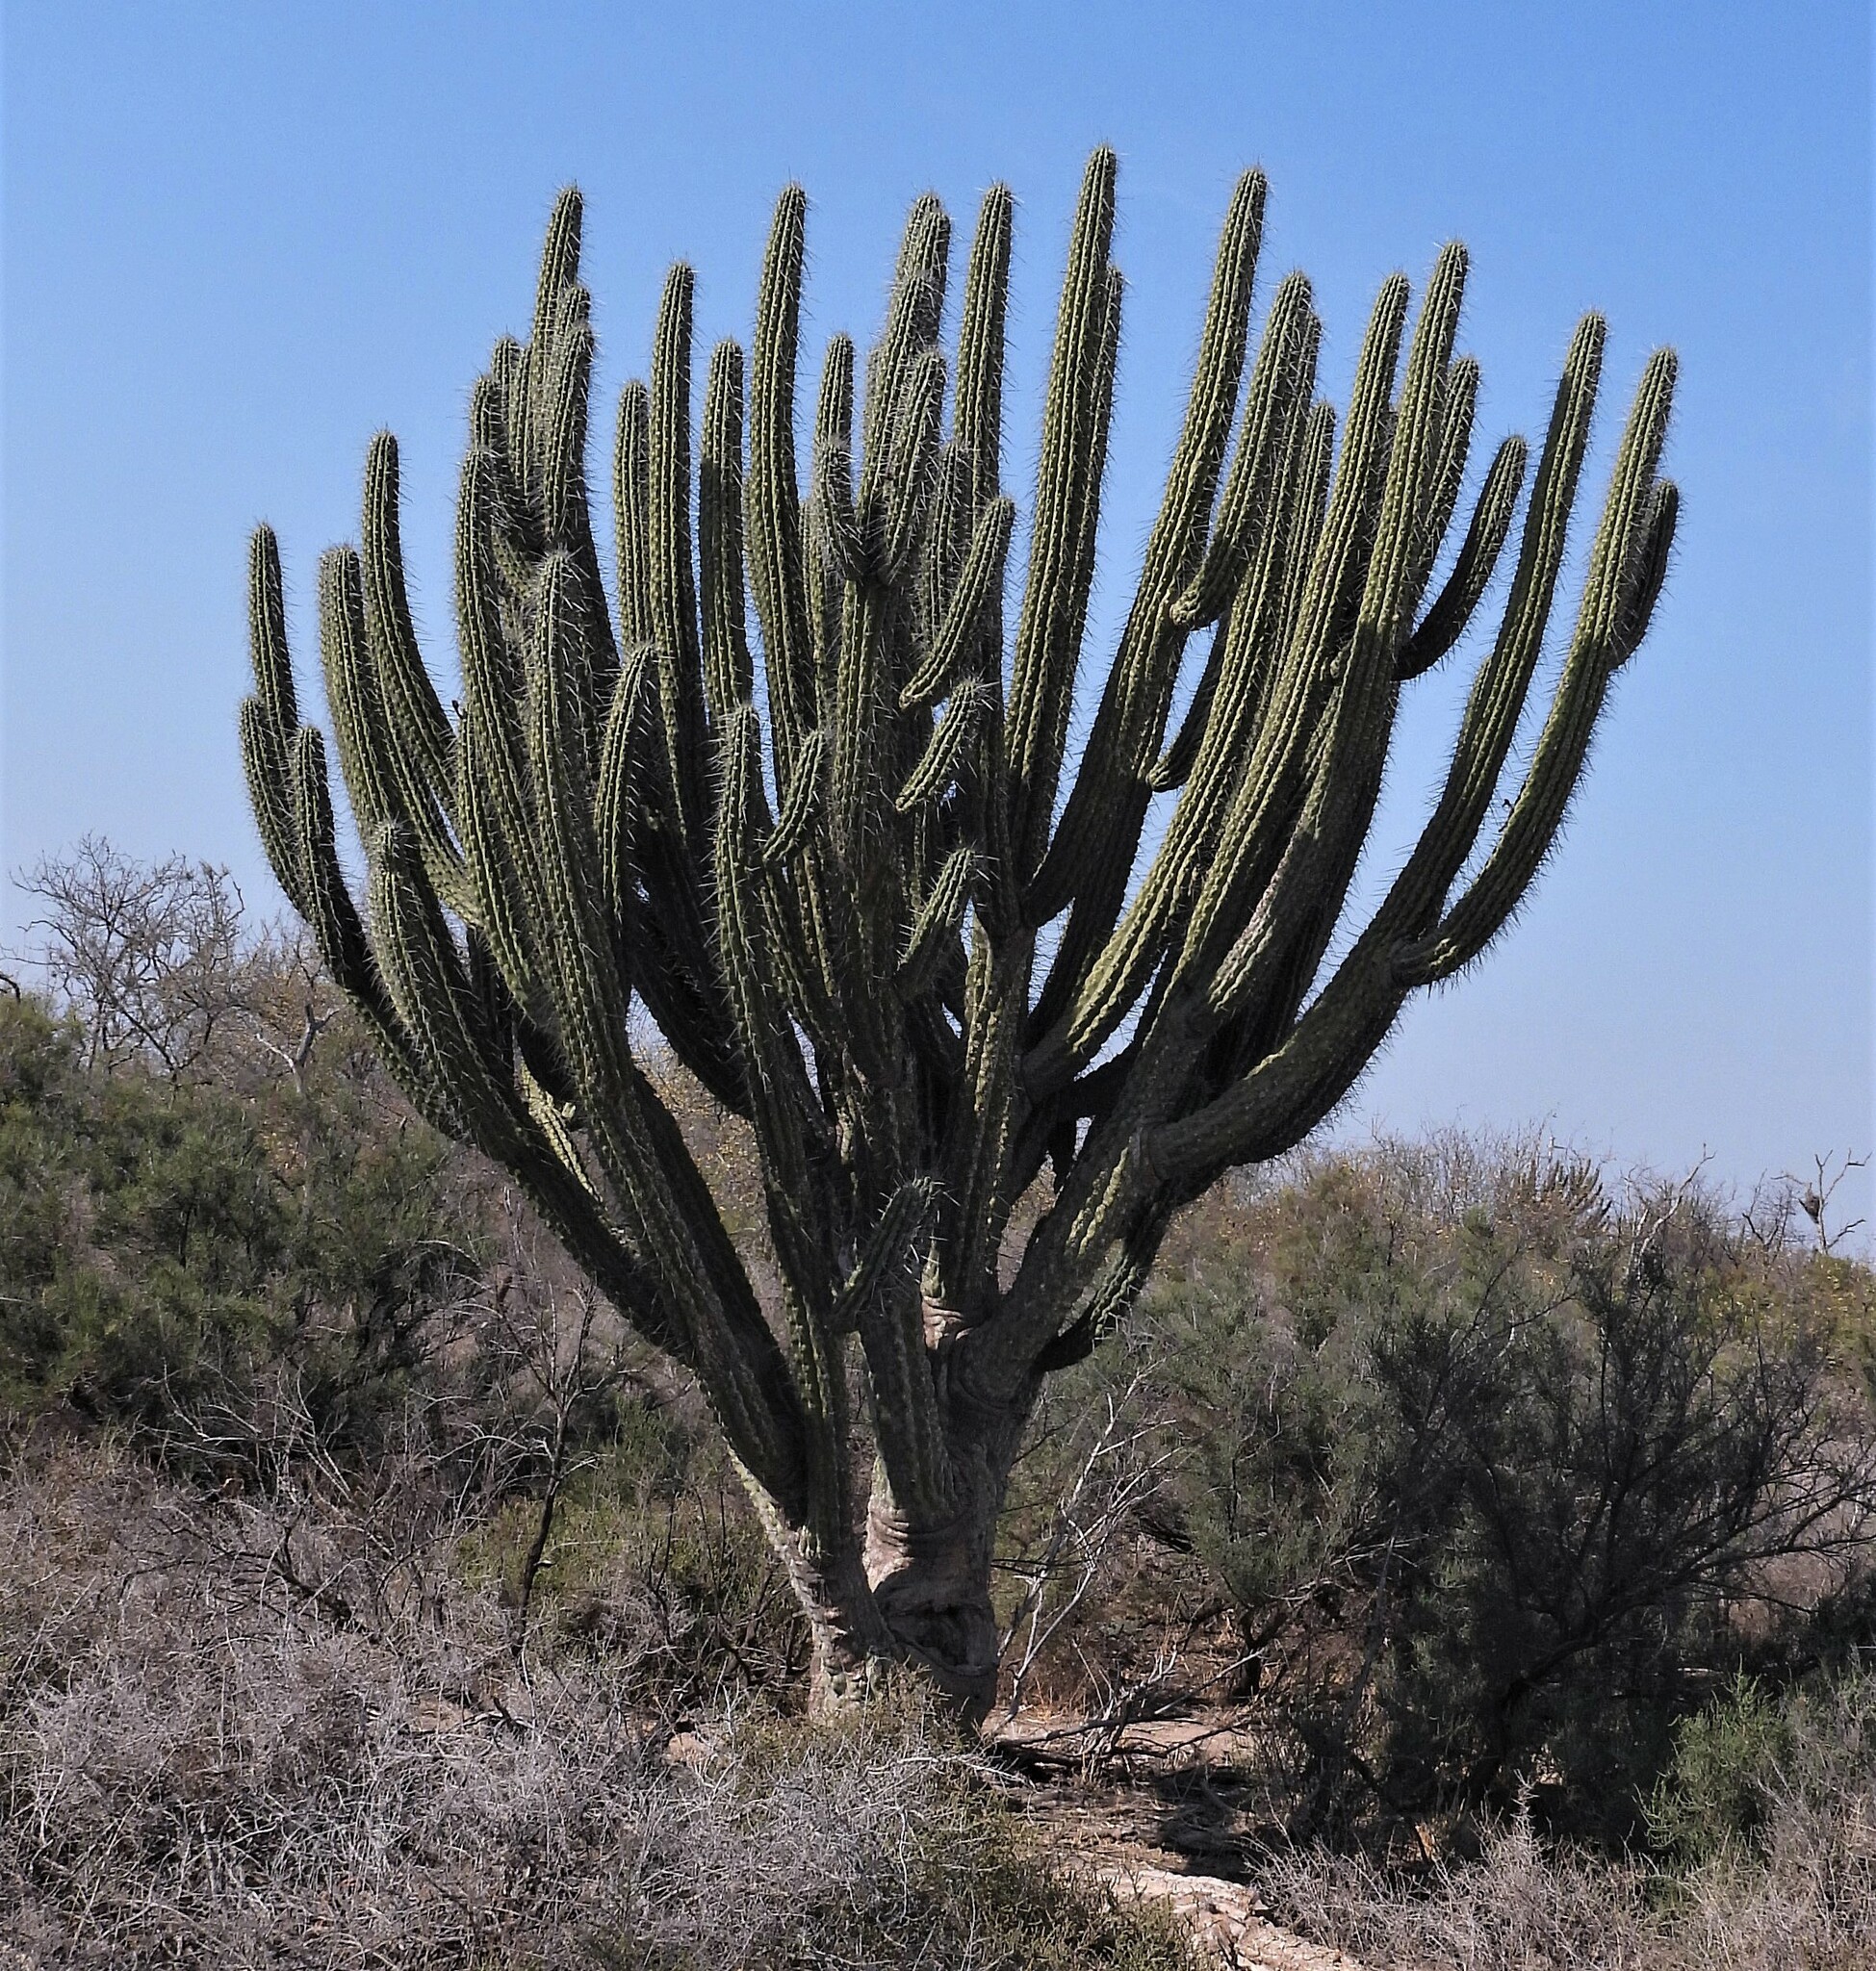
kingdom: Plantae
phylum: Tracheophyta
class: Magnoliopsida
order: Caryophyllales
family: Cactaceae
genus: Stetsonia
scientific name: Stetsonia coryne
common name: Toothpick cactus
